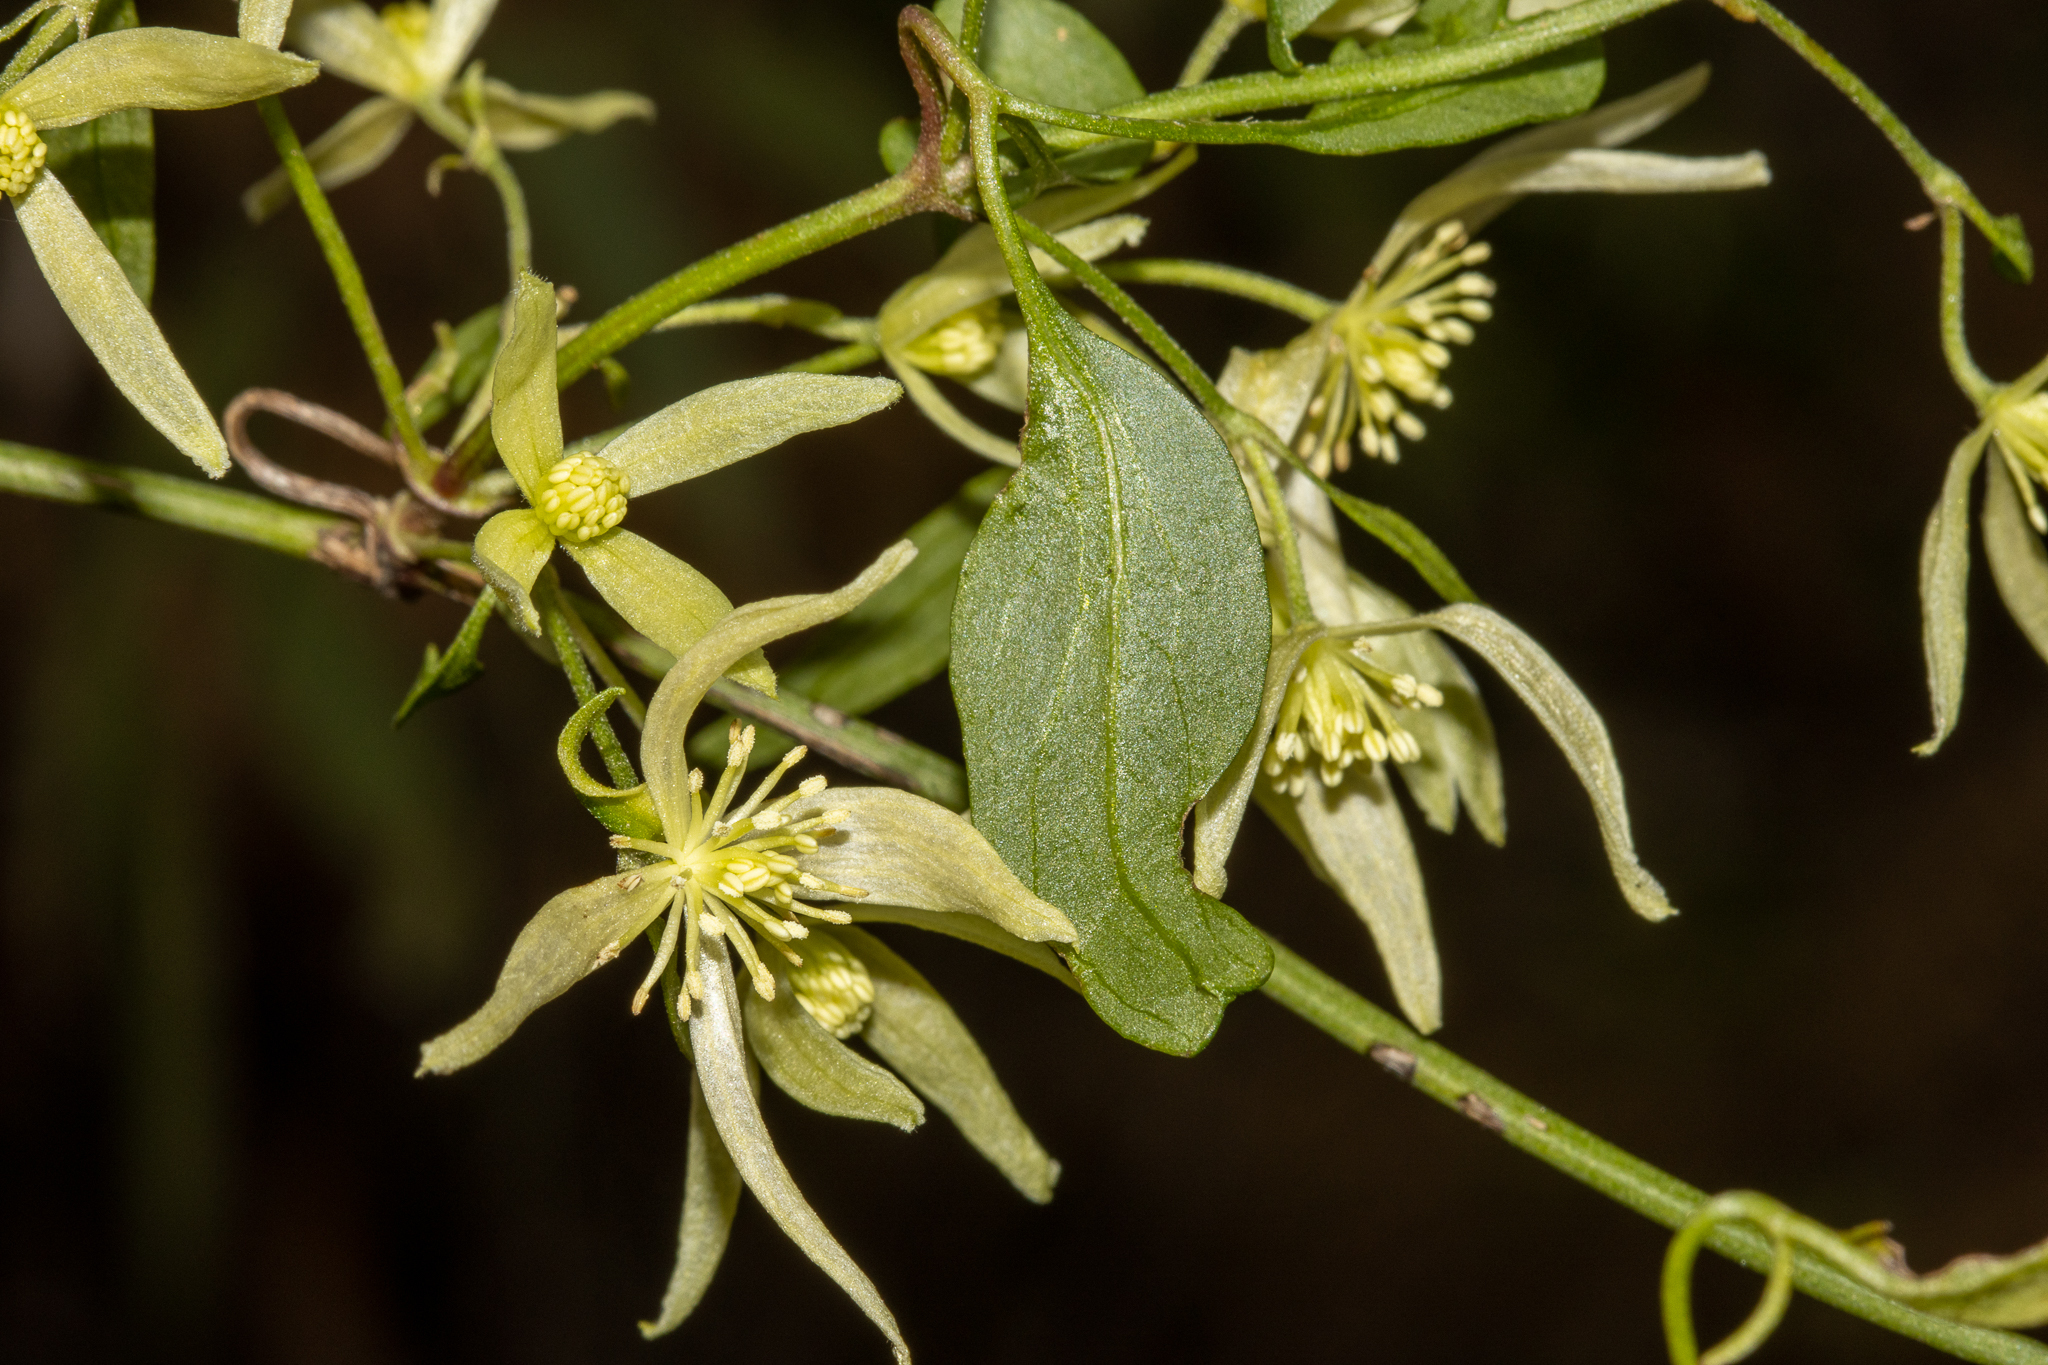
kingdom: Plantae
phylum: Tracheophyta
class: Magnoliopsida
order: Ranunculales
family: Ranunculaceae
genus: Clematis
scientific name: Clematis microphylla
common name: Headachevine
